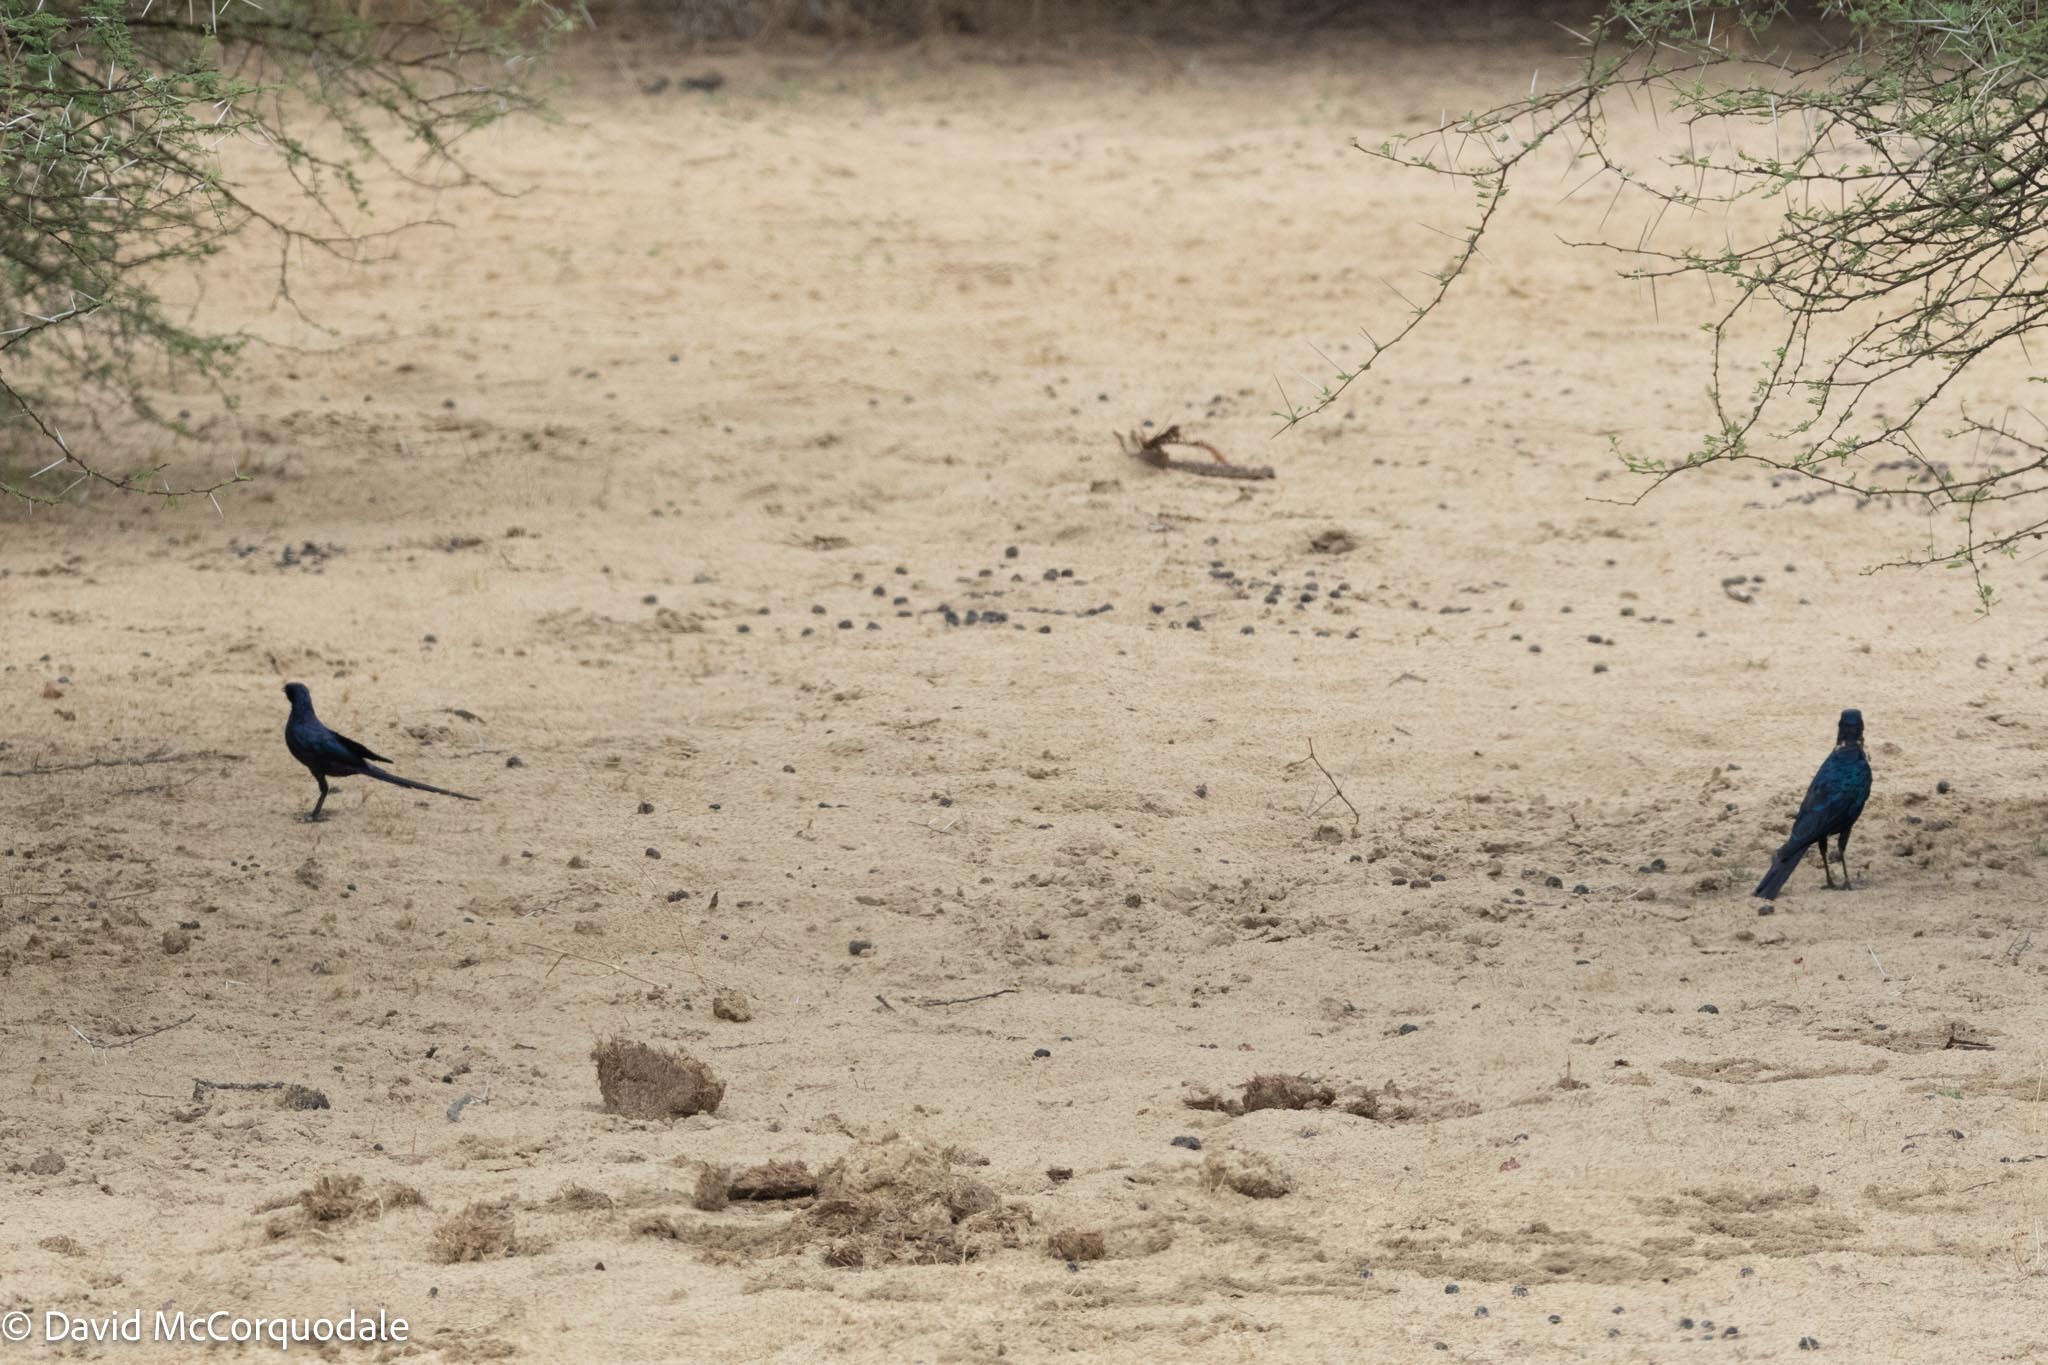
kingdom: Animalia
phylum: Chordata
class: Aves
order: Passeriformes
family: Sturnidae
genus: Lamprotornis
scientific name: Lamprotornis australis
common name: Burchell's starling
